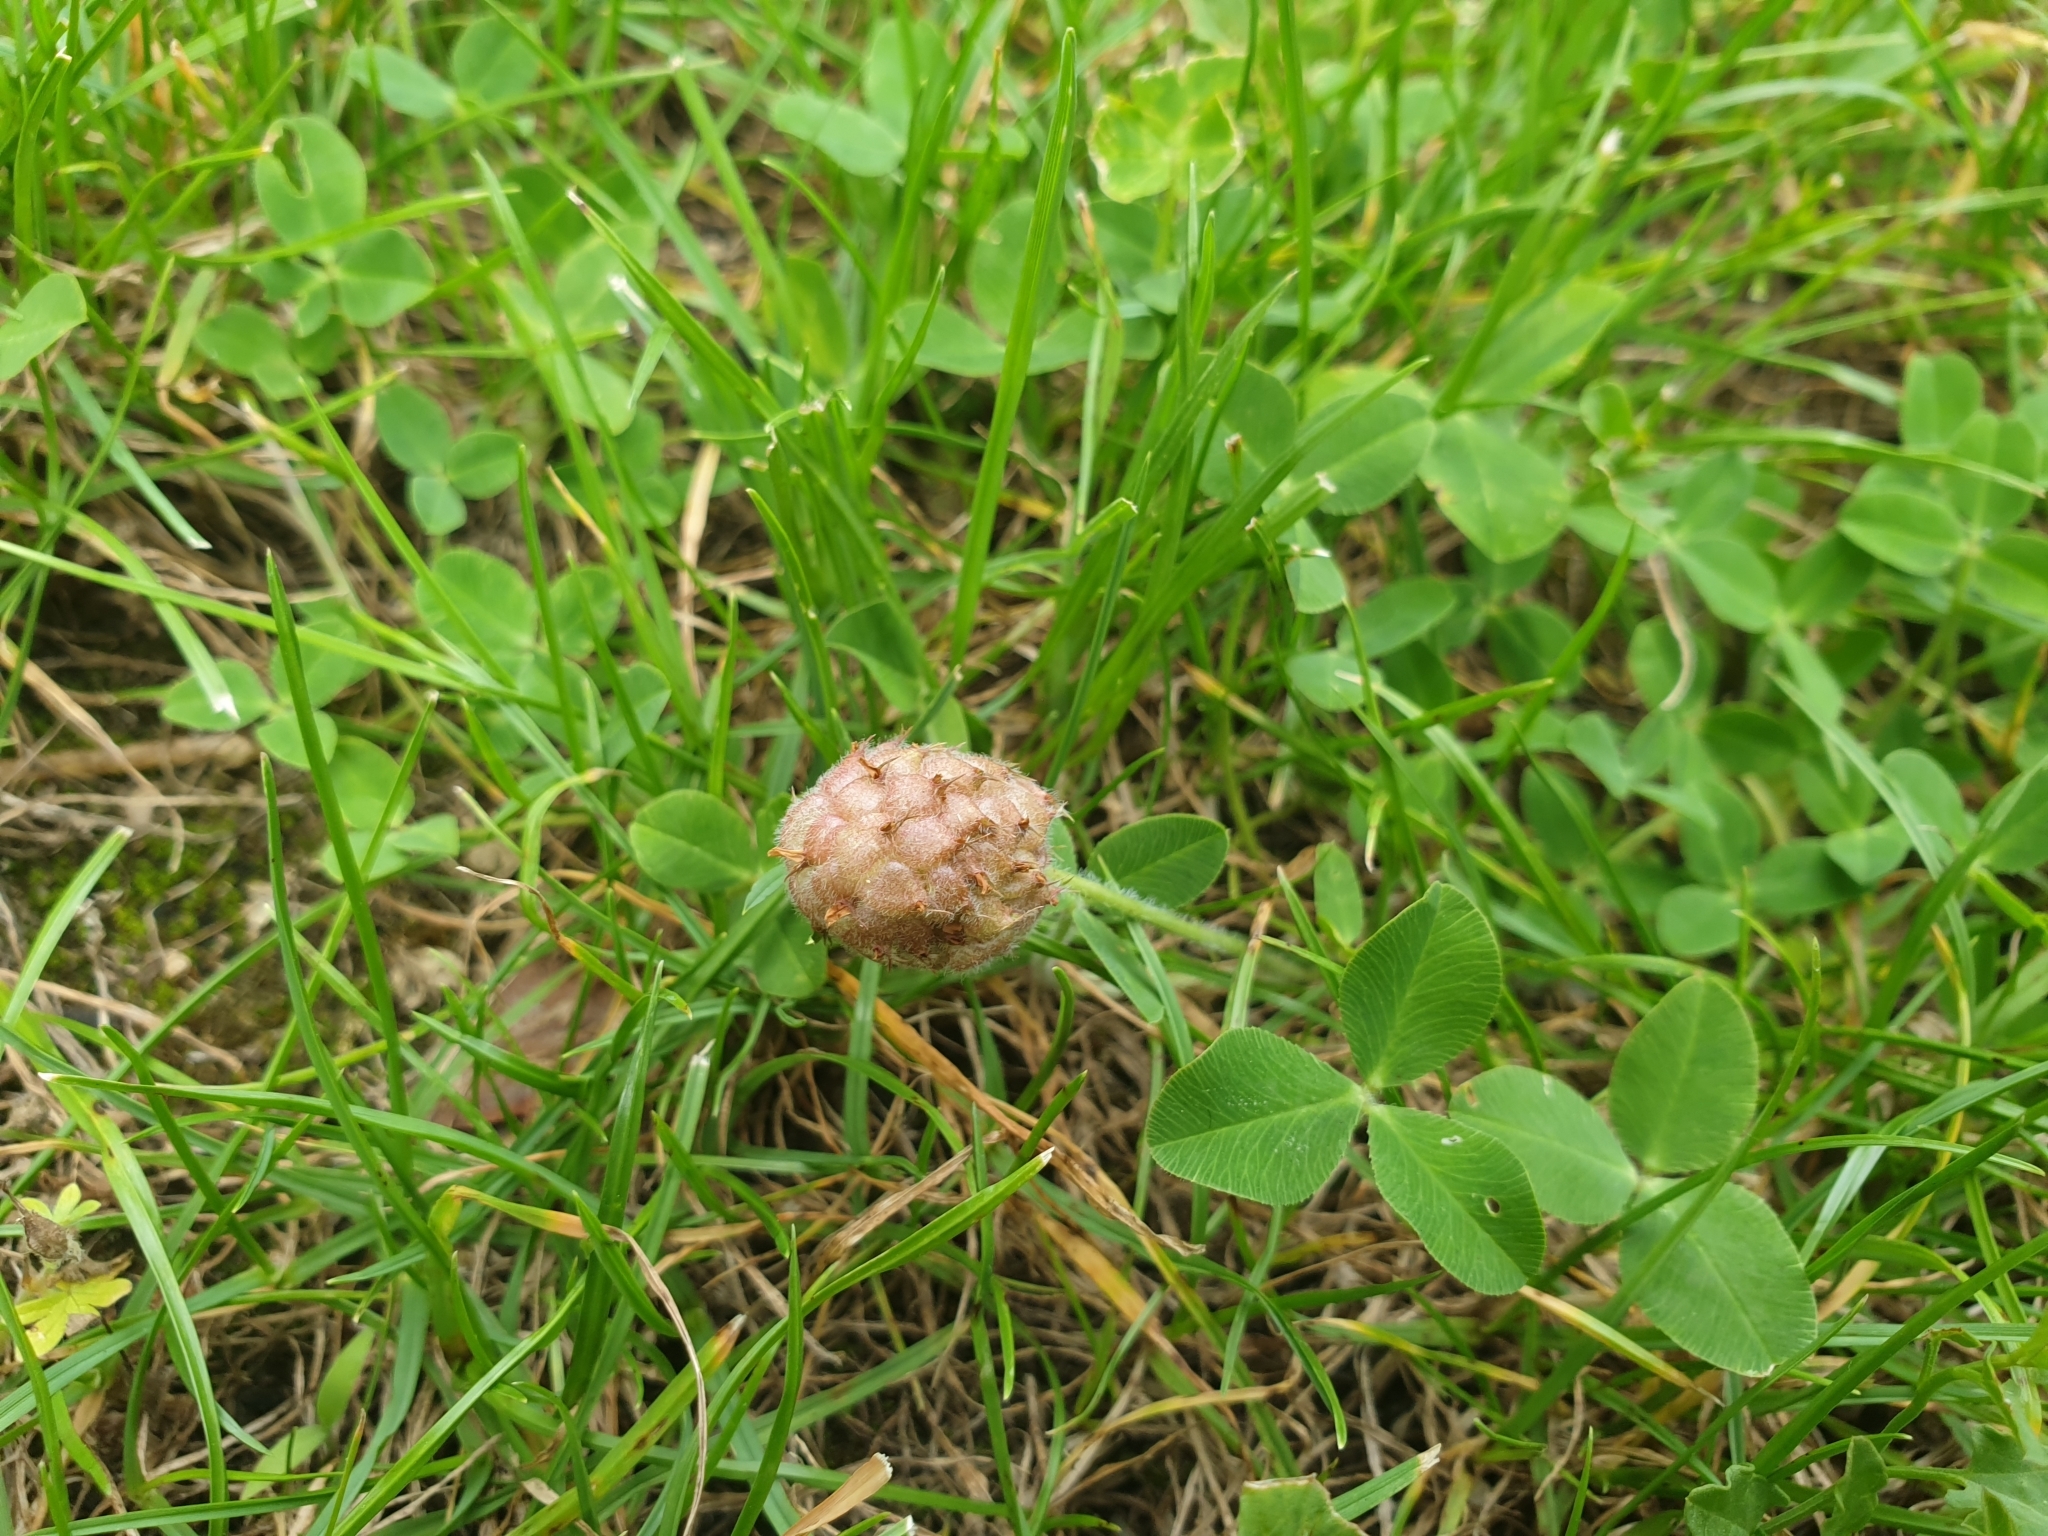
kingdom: Plantae
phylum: Tracheophyta
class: Magnoliopsida
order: Fabales
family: Fabaceae
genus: Trifolium
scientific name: Trifolium fragiferum
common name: Strawberry clover
